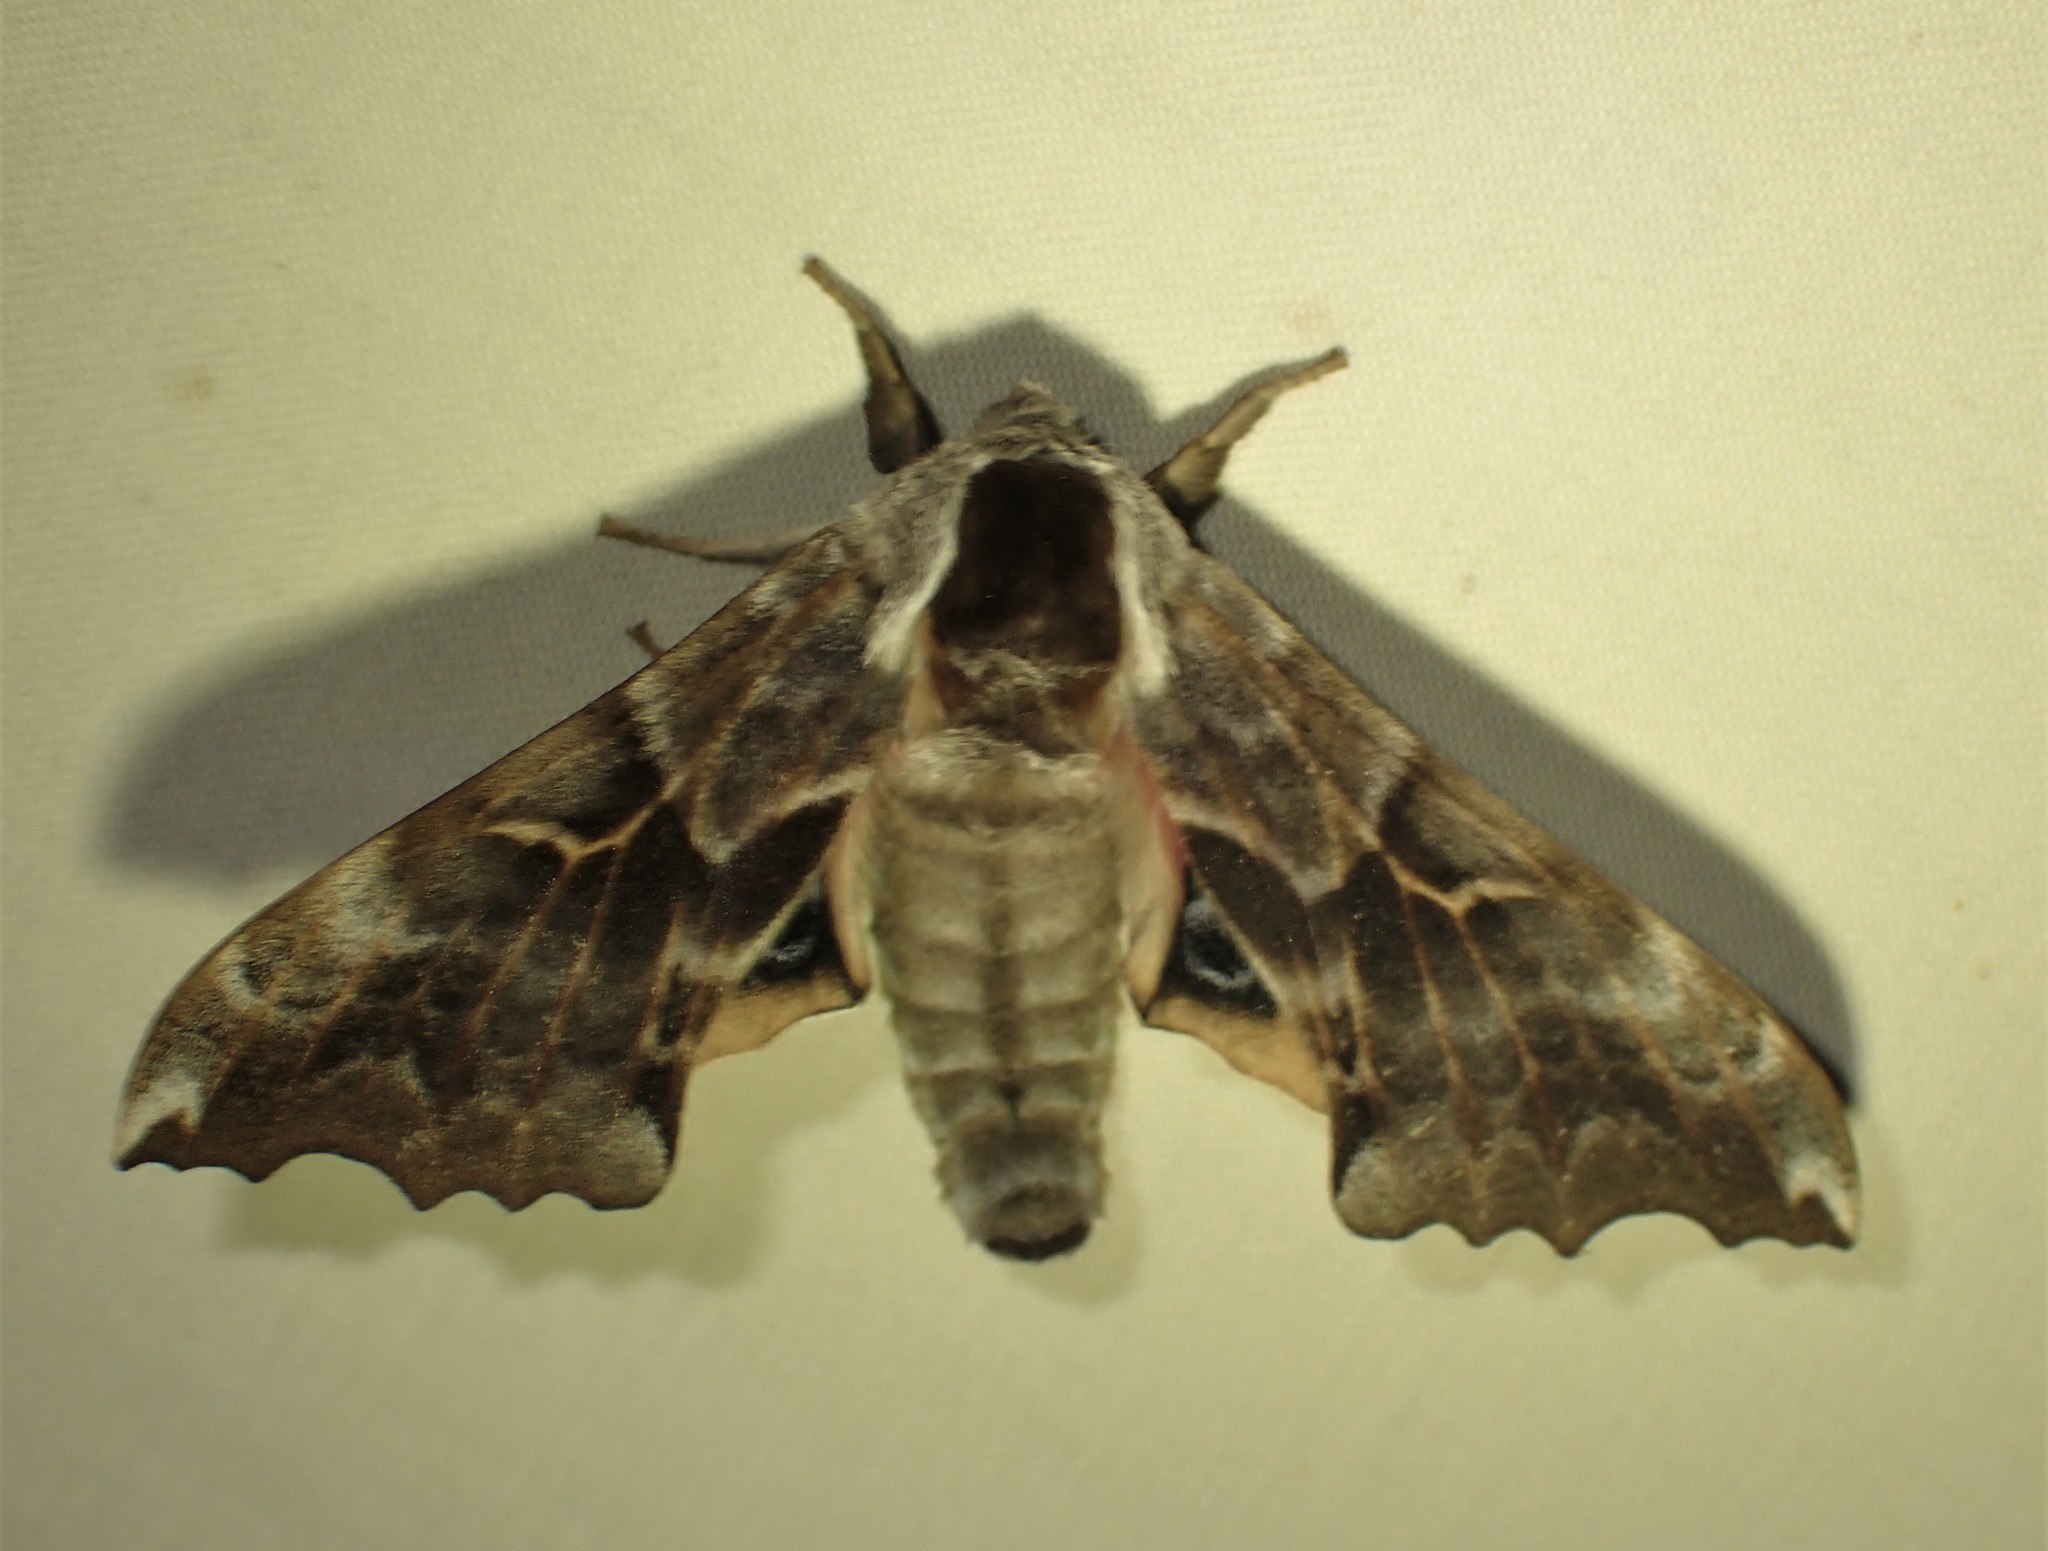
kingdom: Animalia
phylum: Arthropoda
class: Insecta
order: Lepidoptera
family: Sphingidae
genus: Smerinthus
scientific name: Smerinthus cerisyi
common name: Cerisy's sphinx moth
